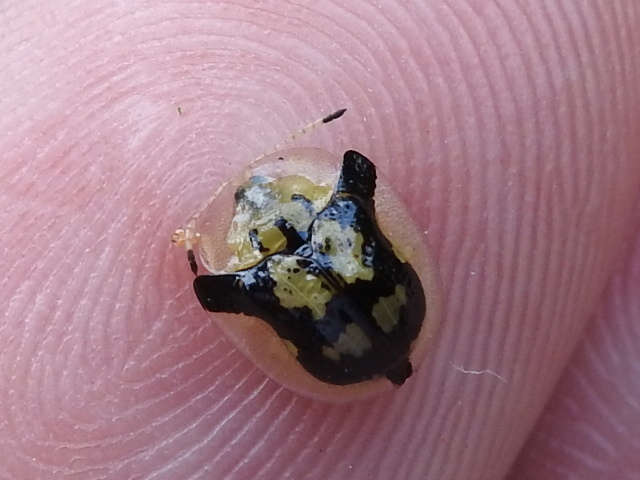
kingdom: Animalia
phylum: Arthropoda
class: Insecta
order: Coleoptera
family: Chrysomelidae
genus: Deloyala
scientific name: Deloyala guttata
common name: Mottled tortoise beetle
